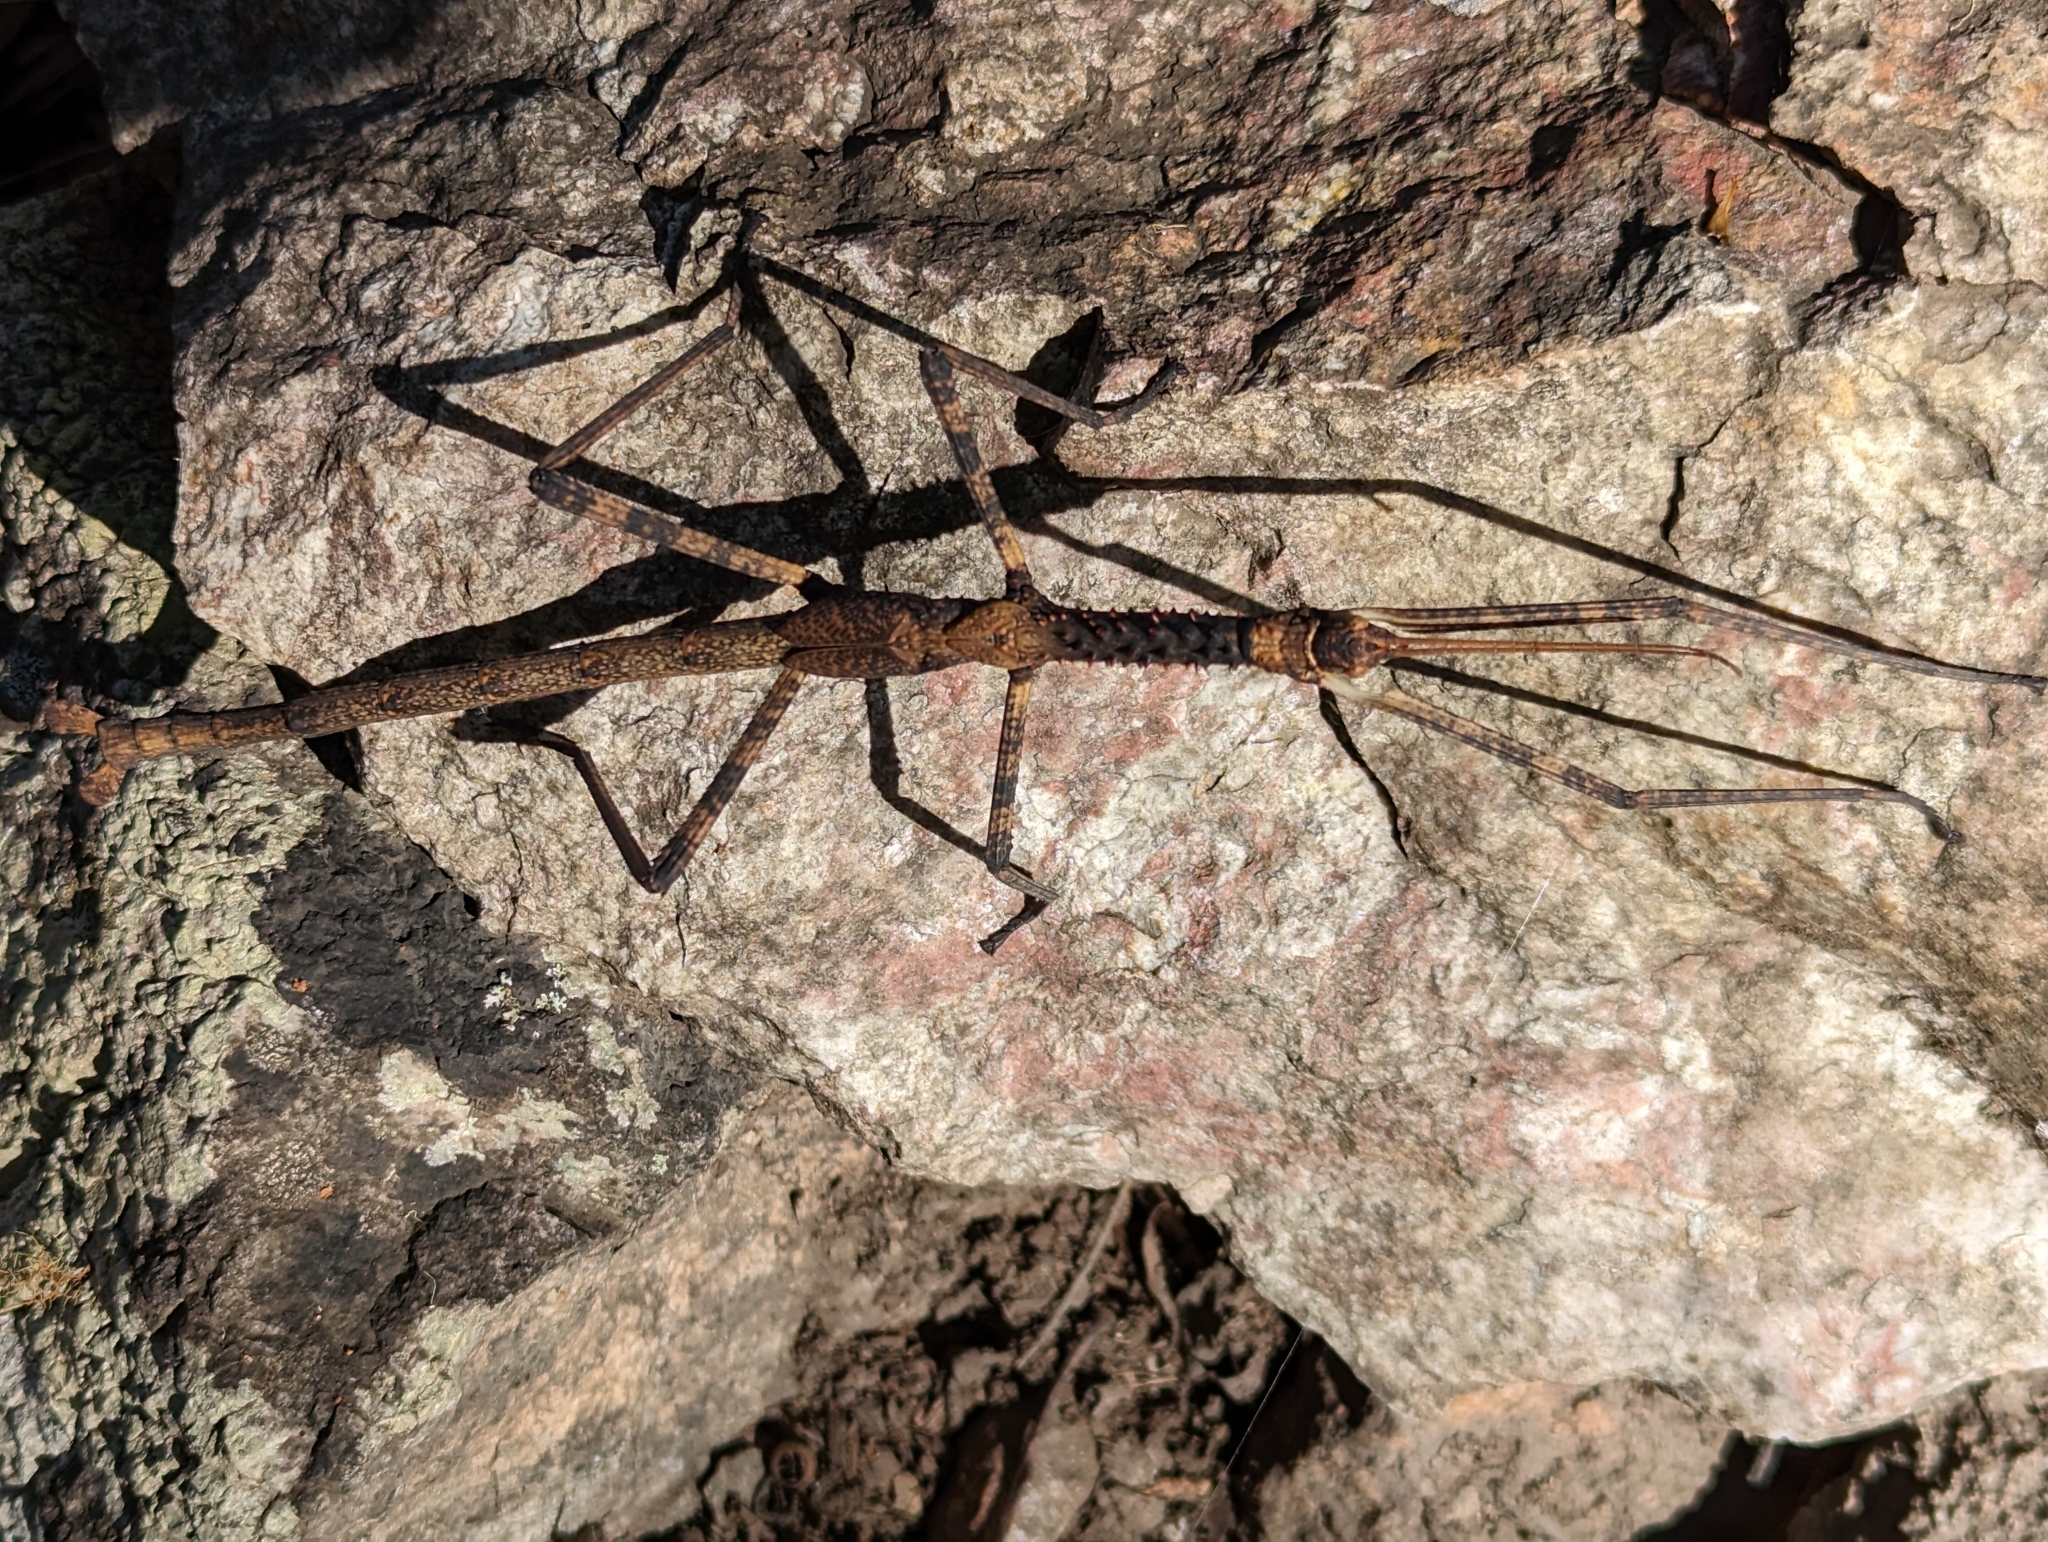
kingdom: Animalia
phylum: Arthropoda
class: Insecta
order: Phasmida
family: Phasmatidae
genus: Acrophylla
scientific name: Acrophylla enceladus
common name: Giant acrophylla stick-insect
